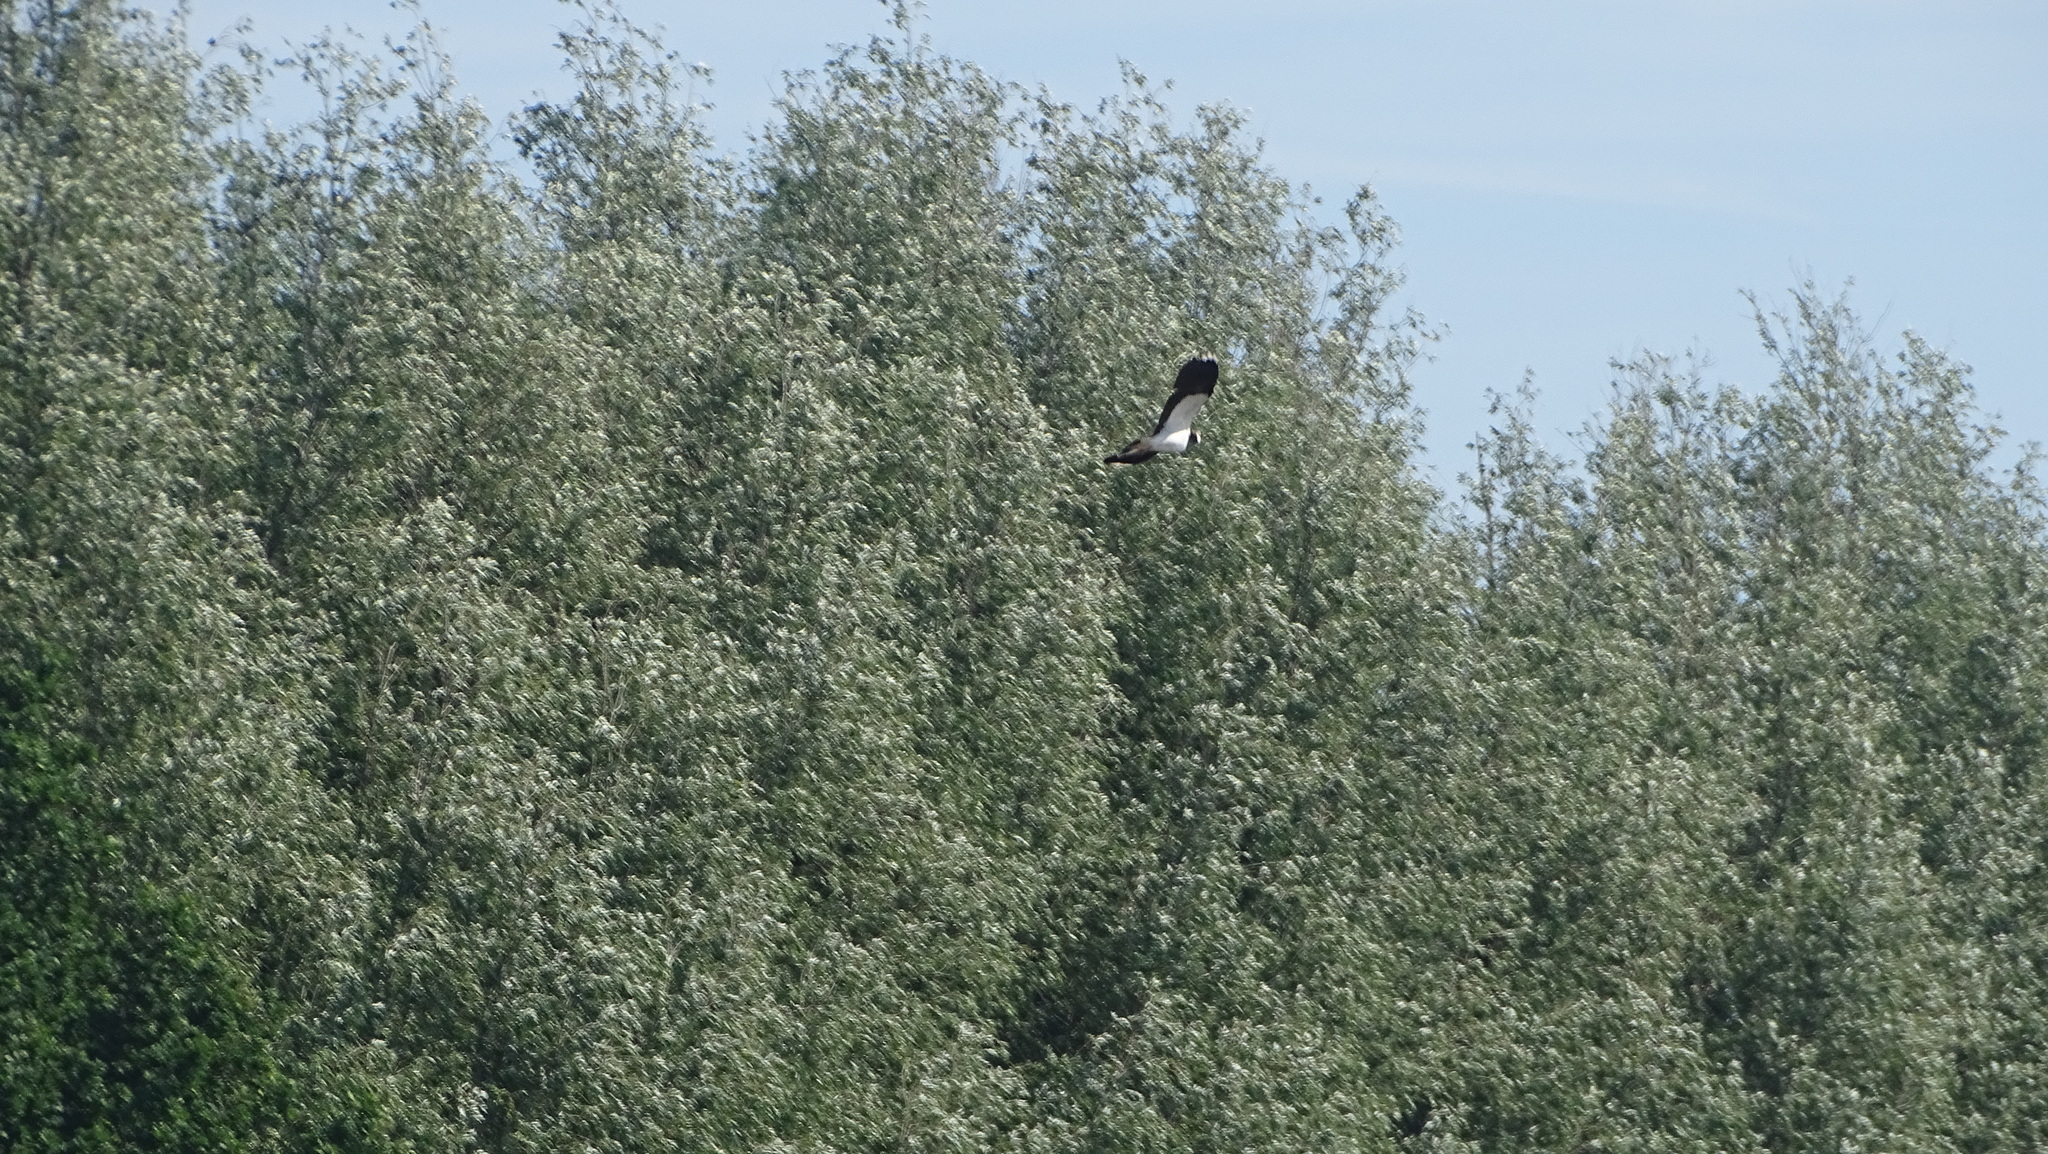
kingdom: Animalia
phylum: Chordata
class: Aves
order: Charadriiformes
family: Charadriidae
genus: Vanellus
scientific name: Vanellus vanellus
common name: Northern lapwing
